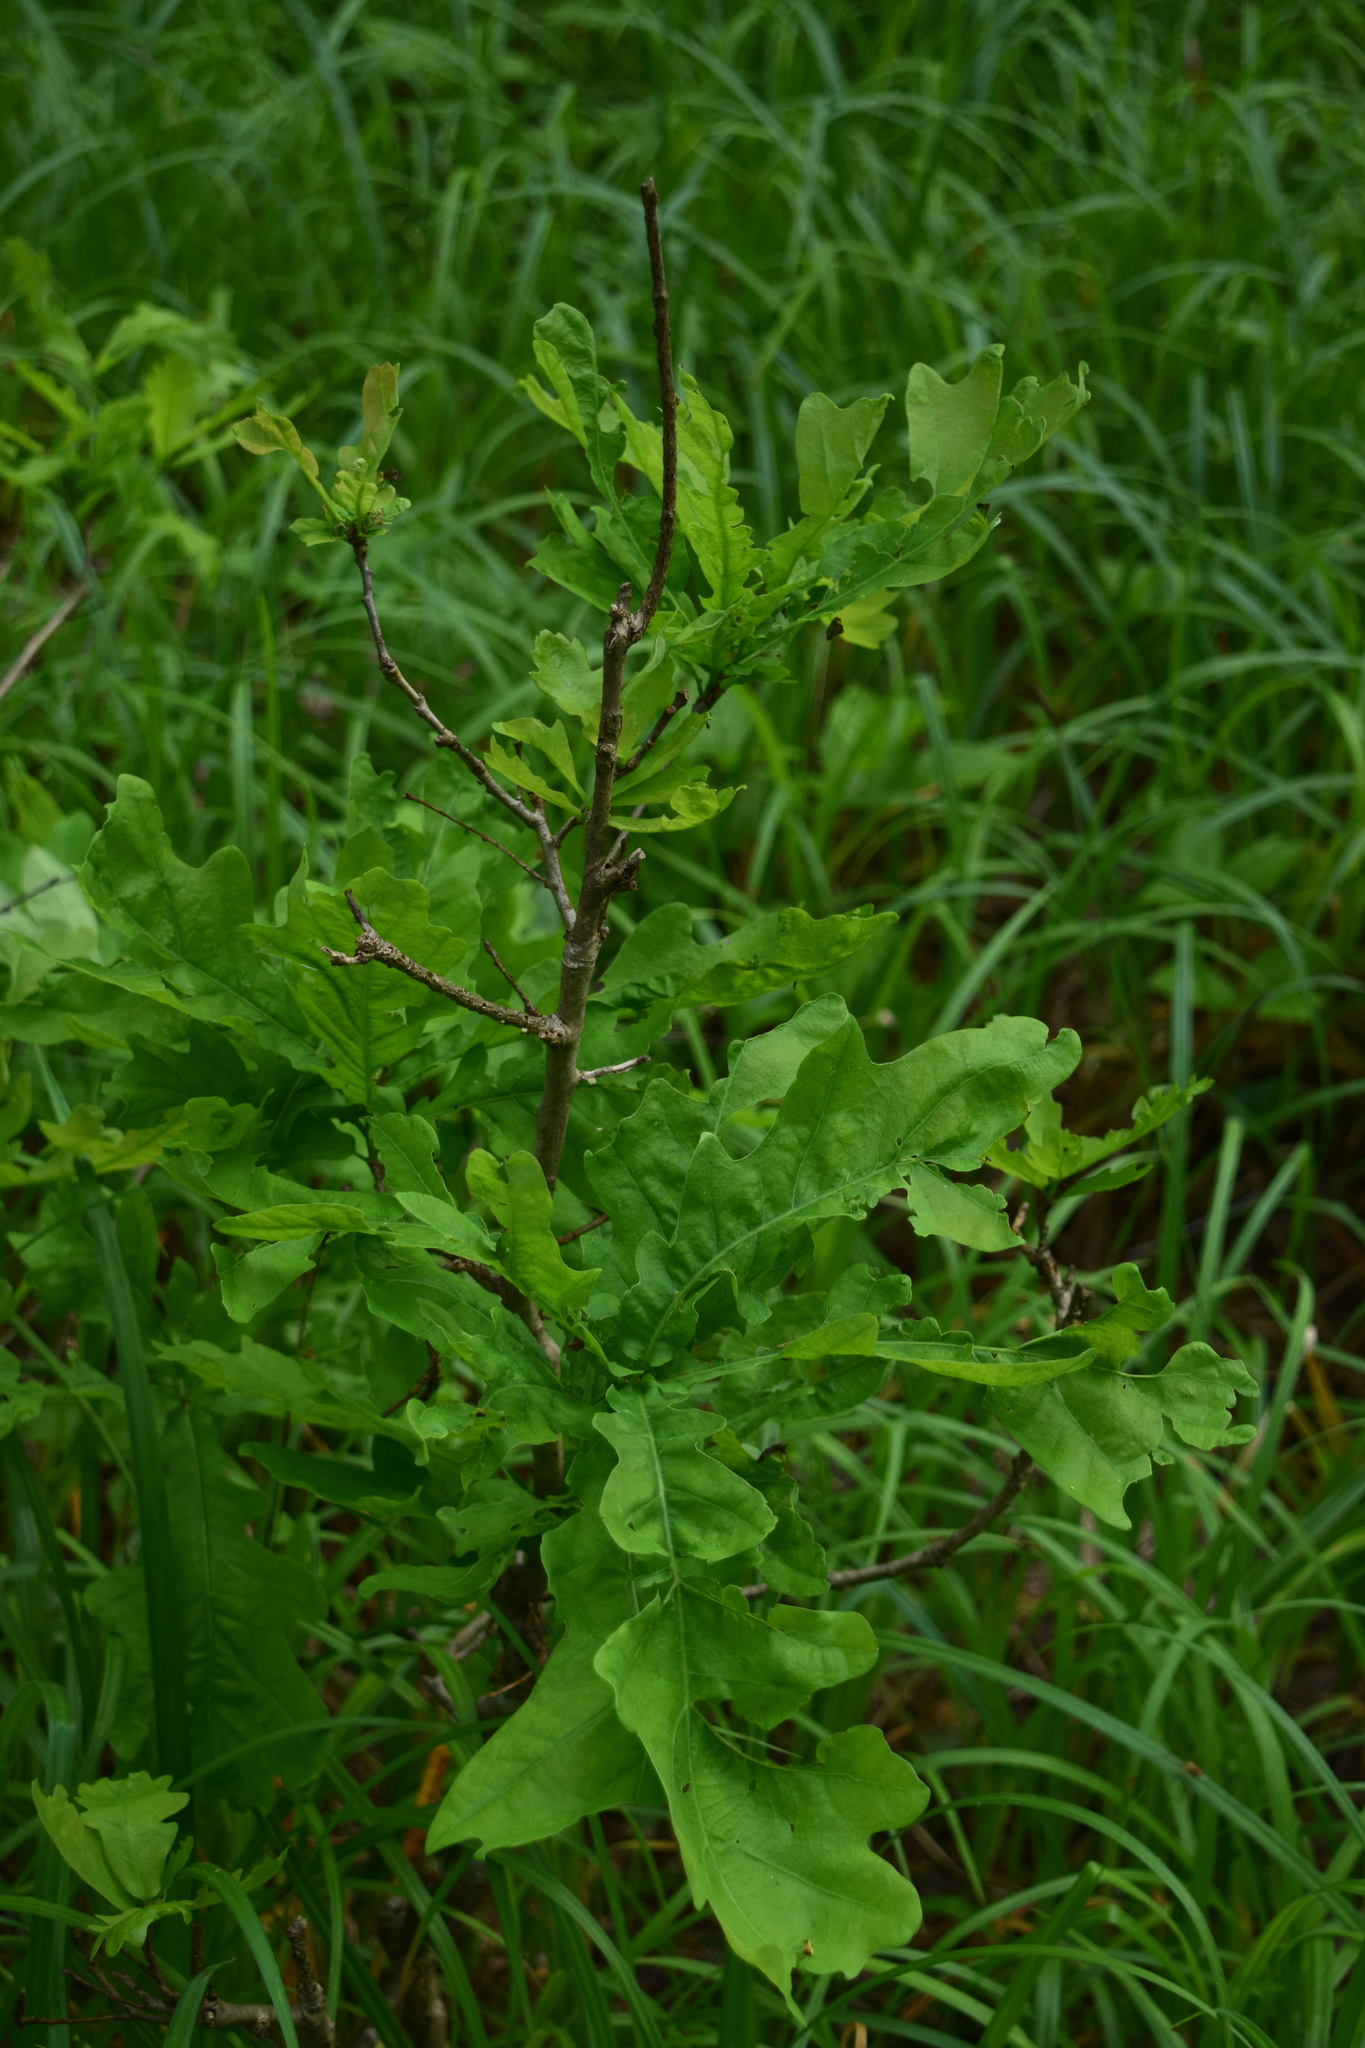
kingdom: Plantae
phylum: Tracheophyta
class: Magnoliopsida
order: Fagales
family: Fagaceae
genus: Quercus
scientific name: Quercus robur
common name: Pedunculate oak
